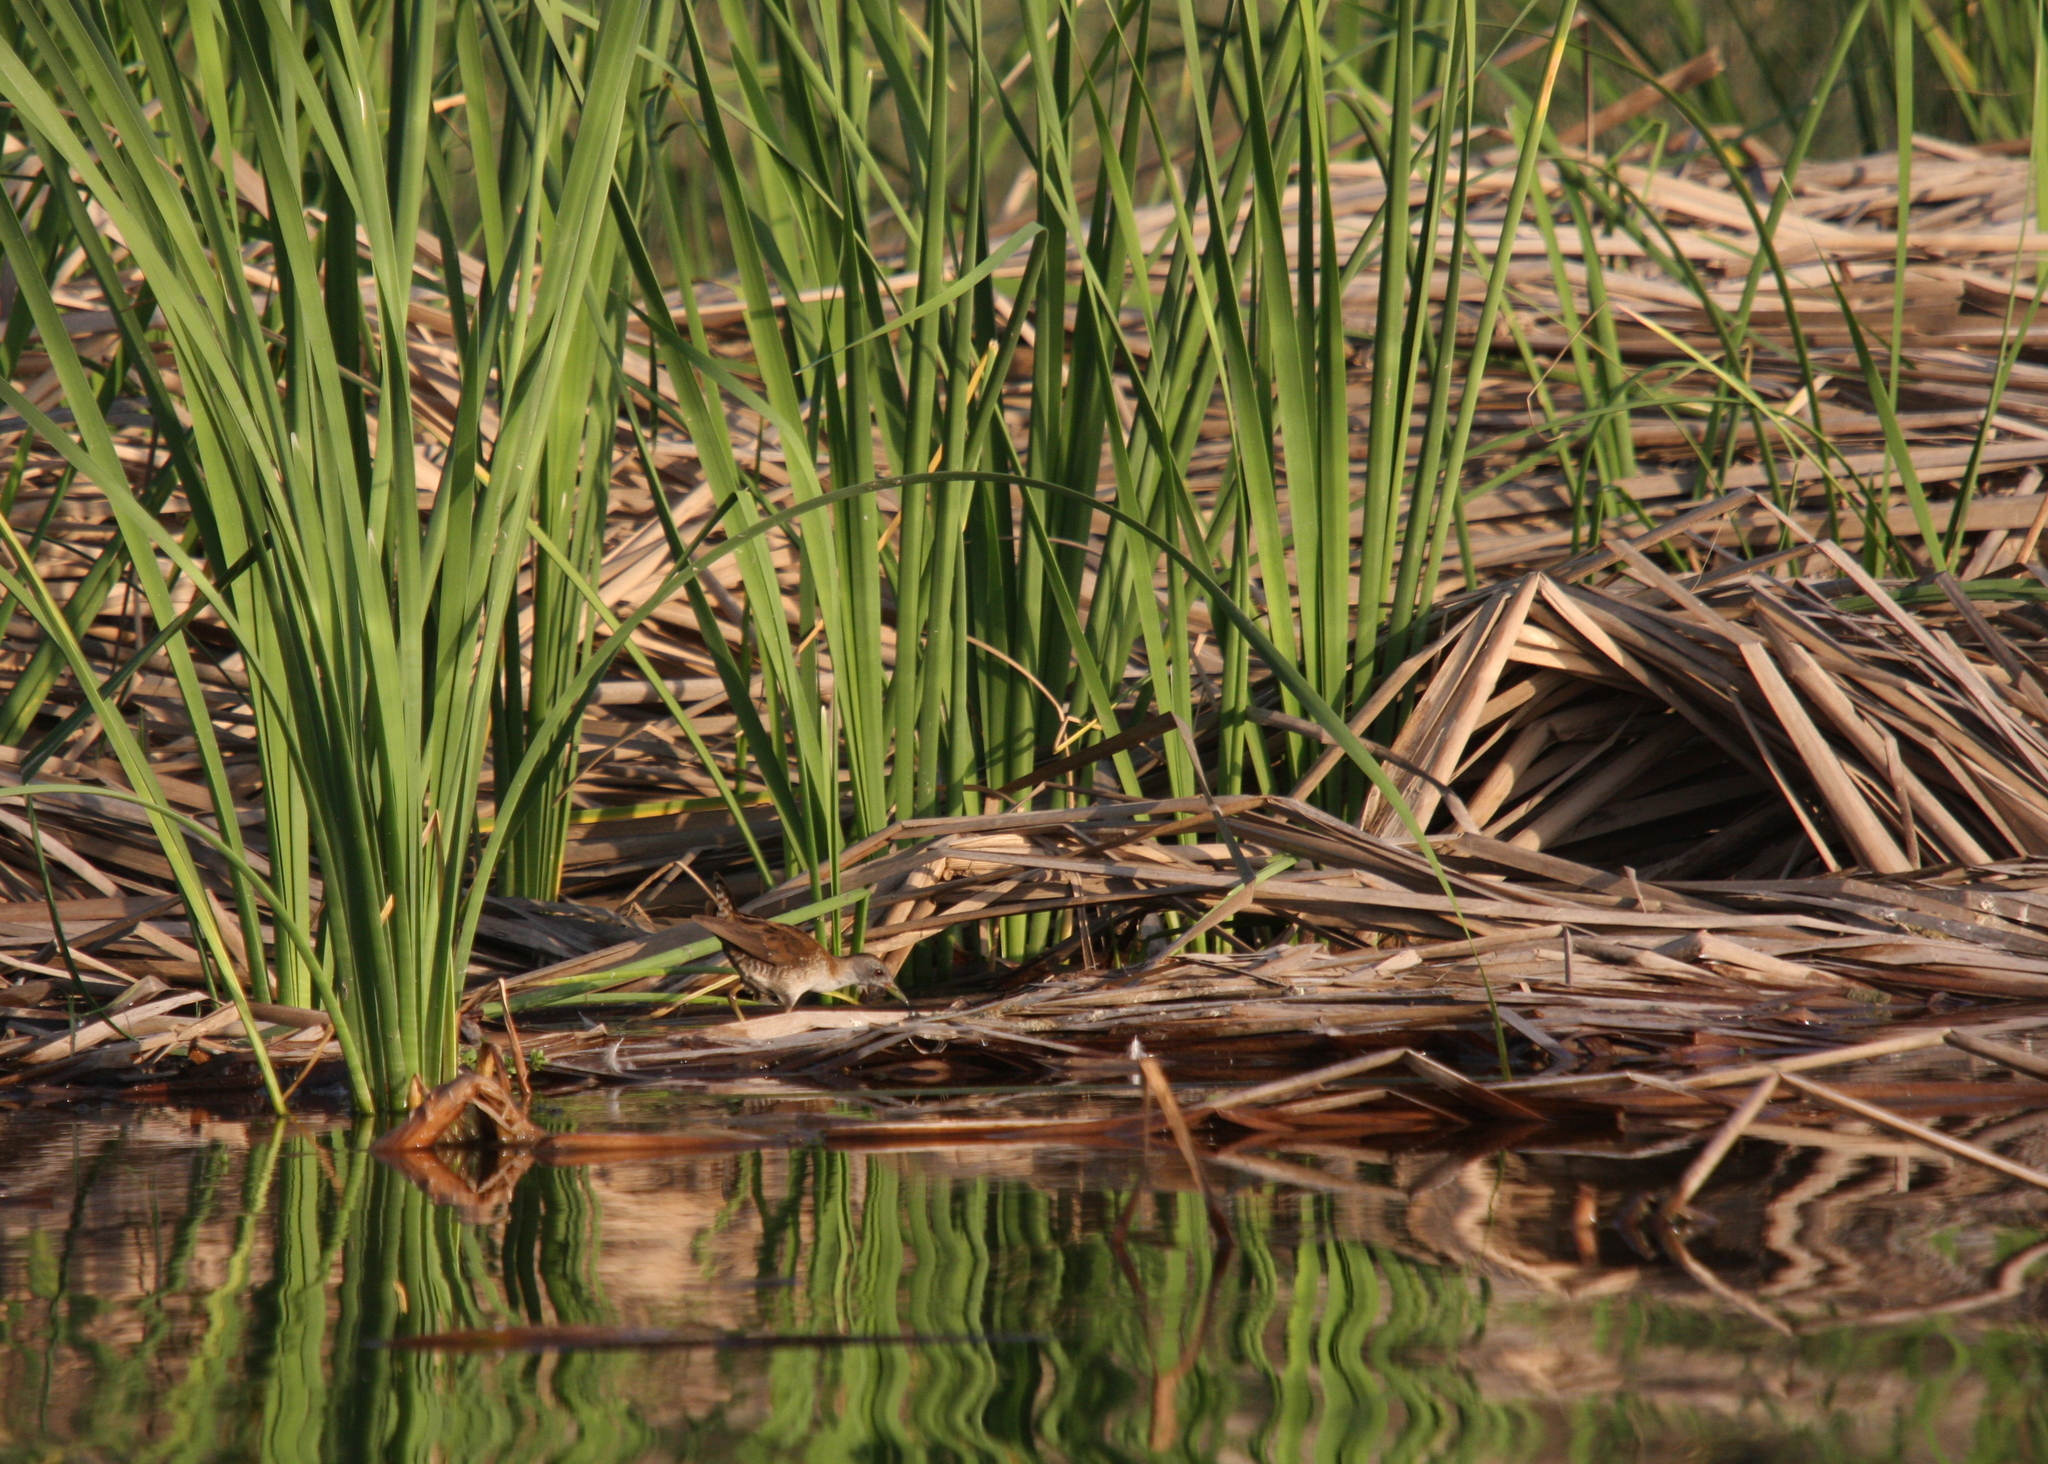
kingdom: Animalia
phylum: Chordata
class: Aves
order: Gruiformes
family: Rallidae
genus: Porzana
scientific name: Porzana parva
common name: Little crake
